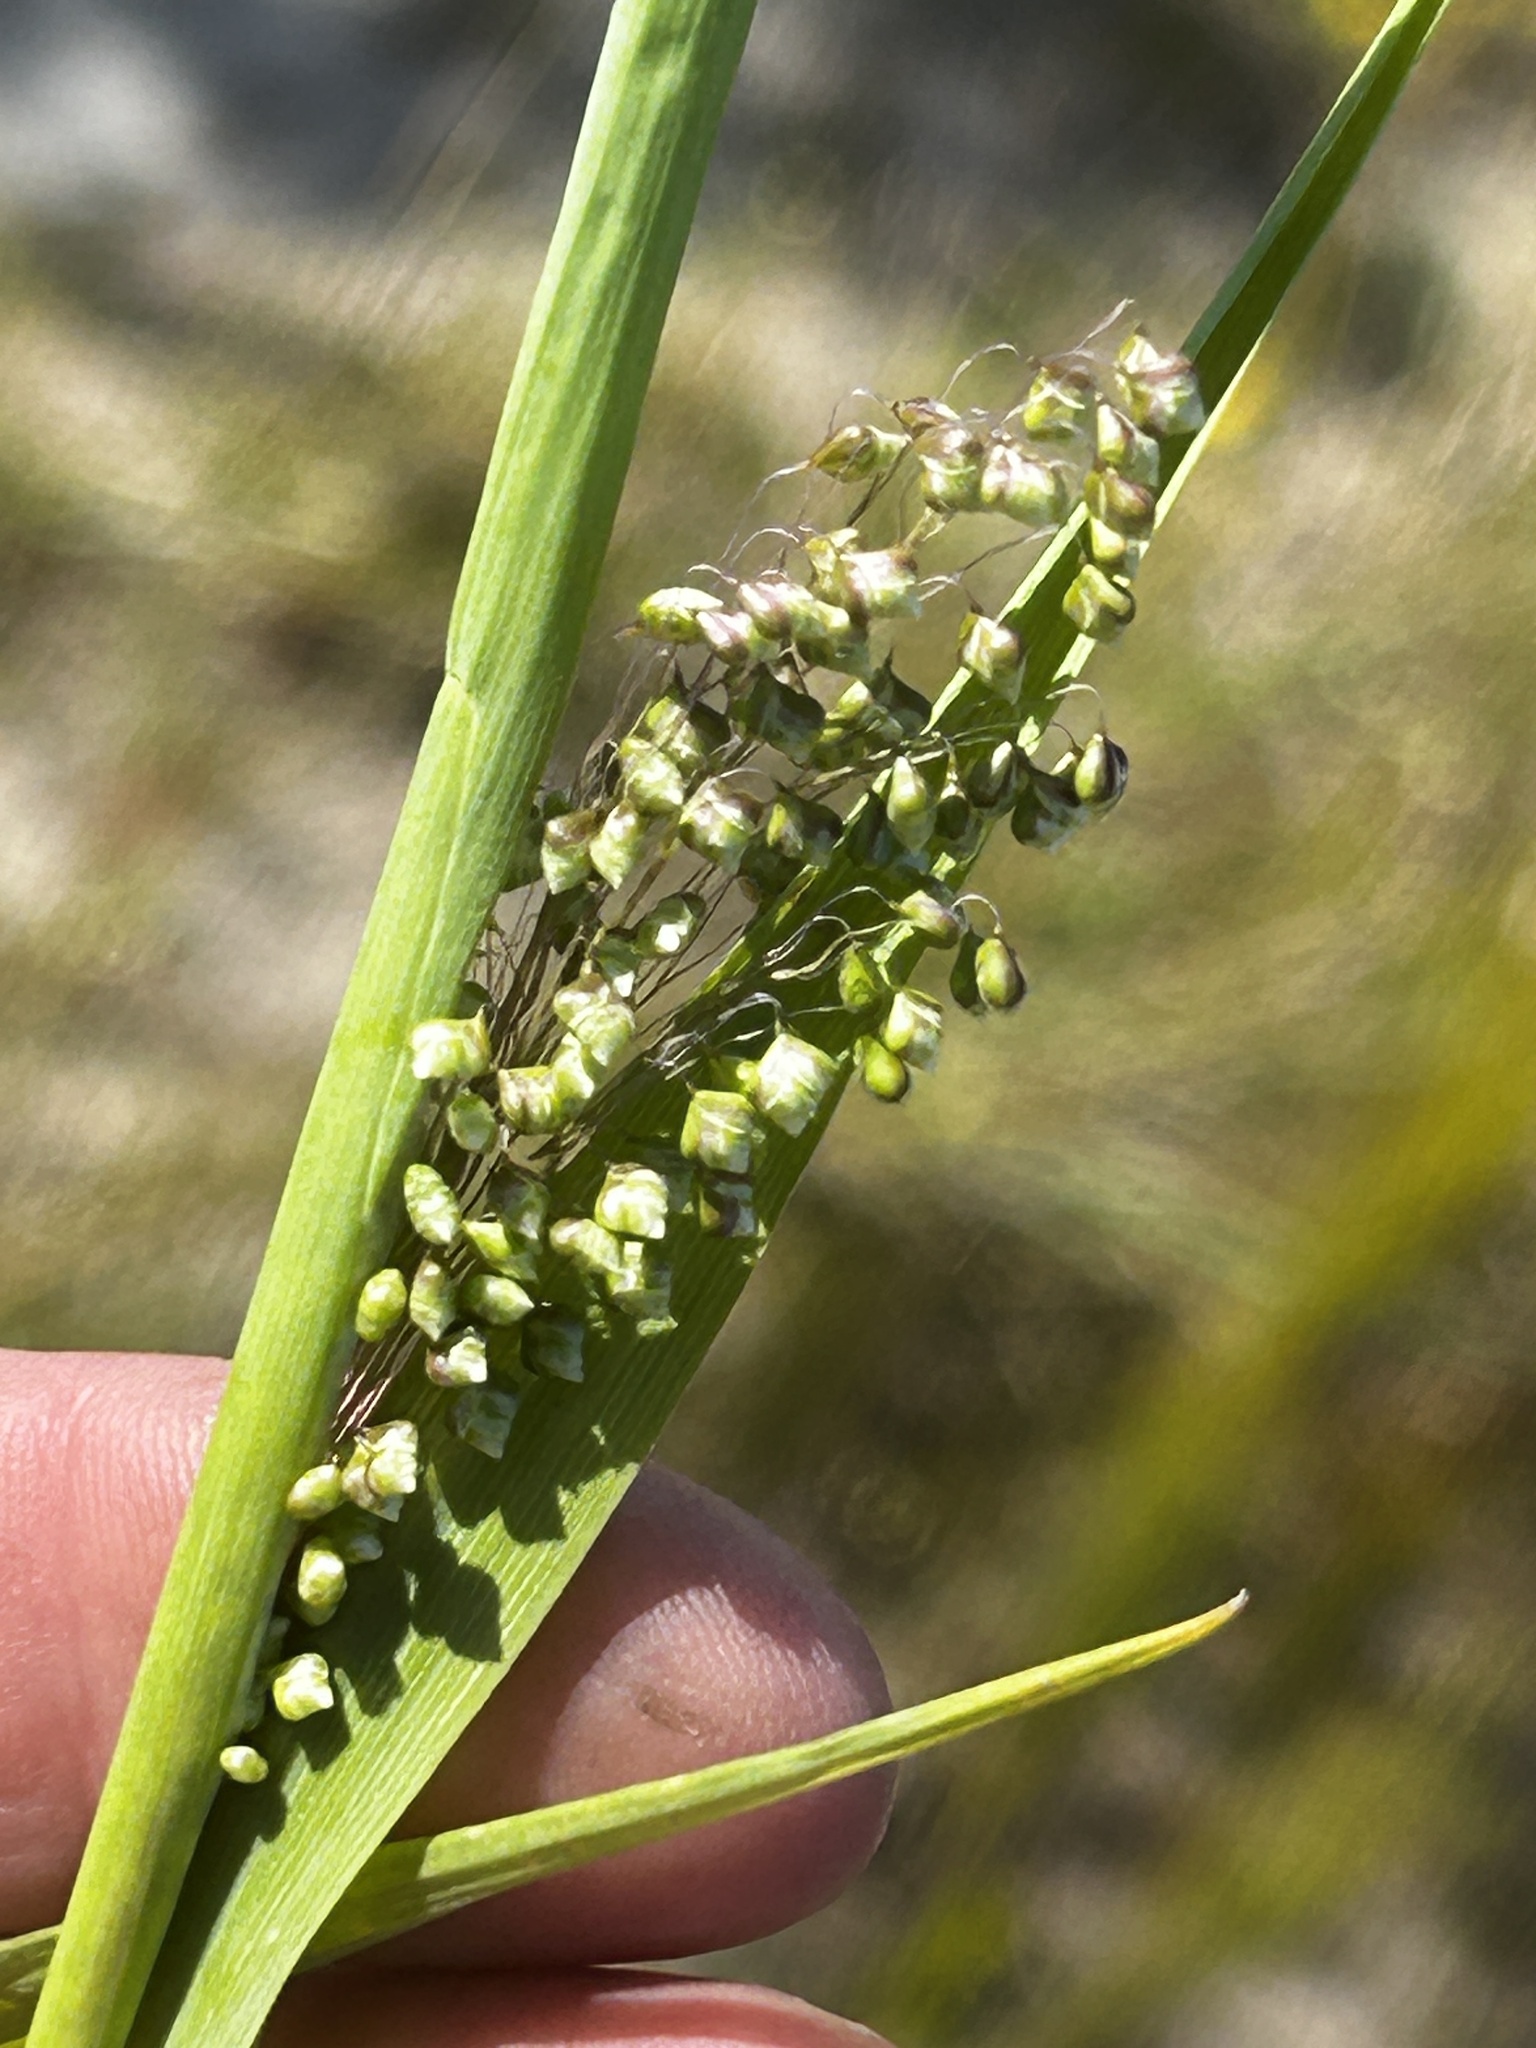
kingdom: Plantae
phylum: Tracheophyta
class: Liliopsida
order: Poales
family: Poaceae
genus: Briza
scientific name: Briza minor
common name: Lesser quaking-grass
